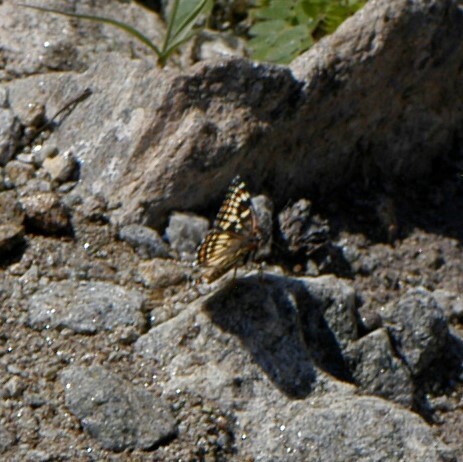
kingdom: Animalia
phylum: Arthropoda
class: Insecta
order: Lepidoptera
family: Nymphalidae
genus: Thessalia
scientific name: Thessalia leanira
